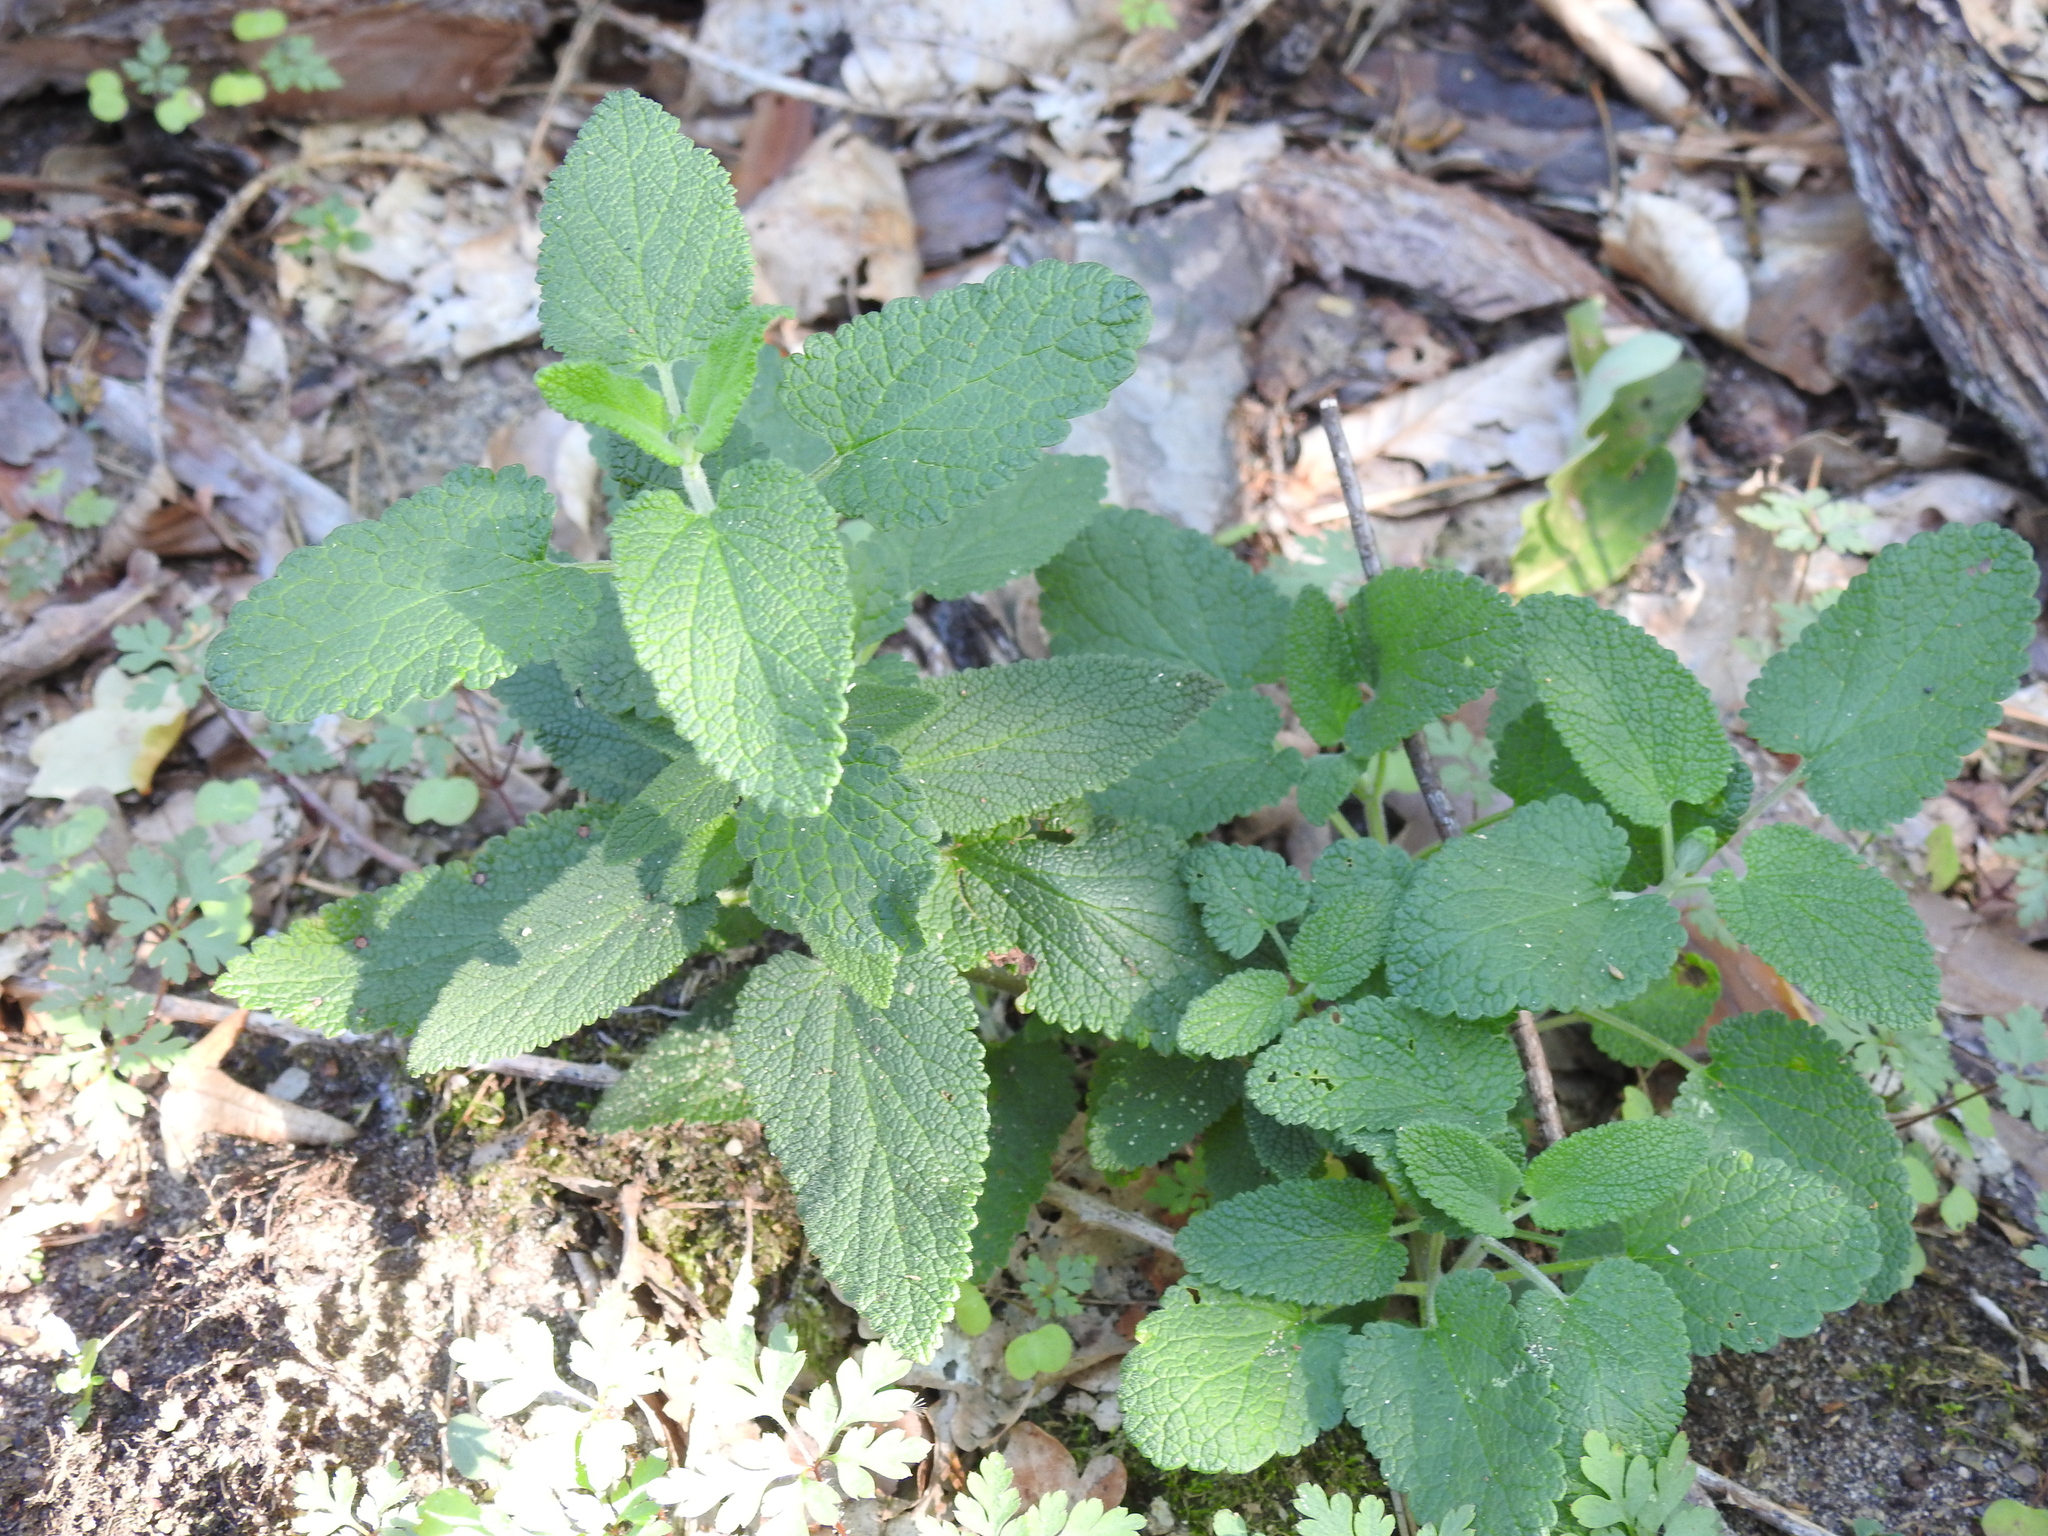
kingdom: Plantae
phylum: Tracheophyta
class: Magnoliopsida
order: Lamiales
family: Lamiaceae
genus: Teucrium
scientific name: Teucrium scorodonia
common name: Woodland germander
